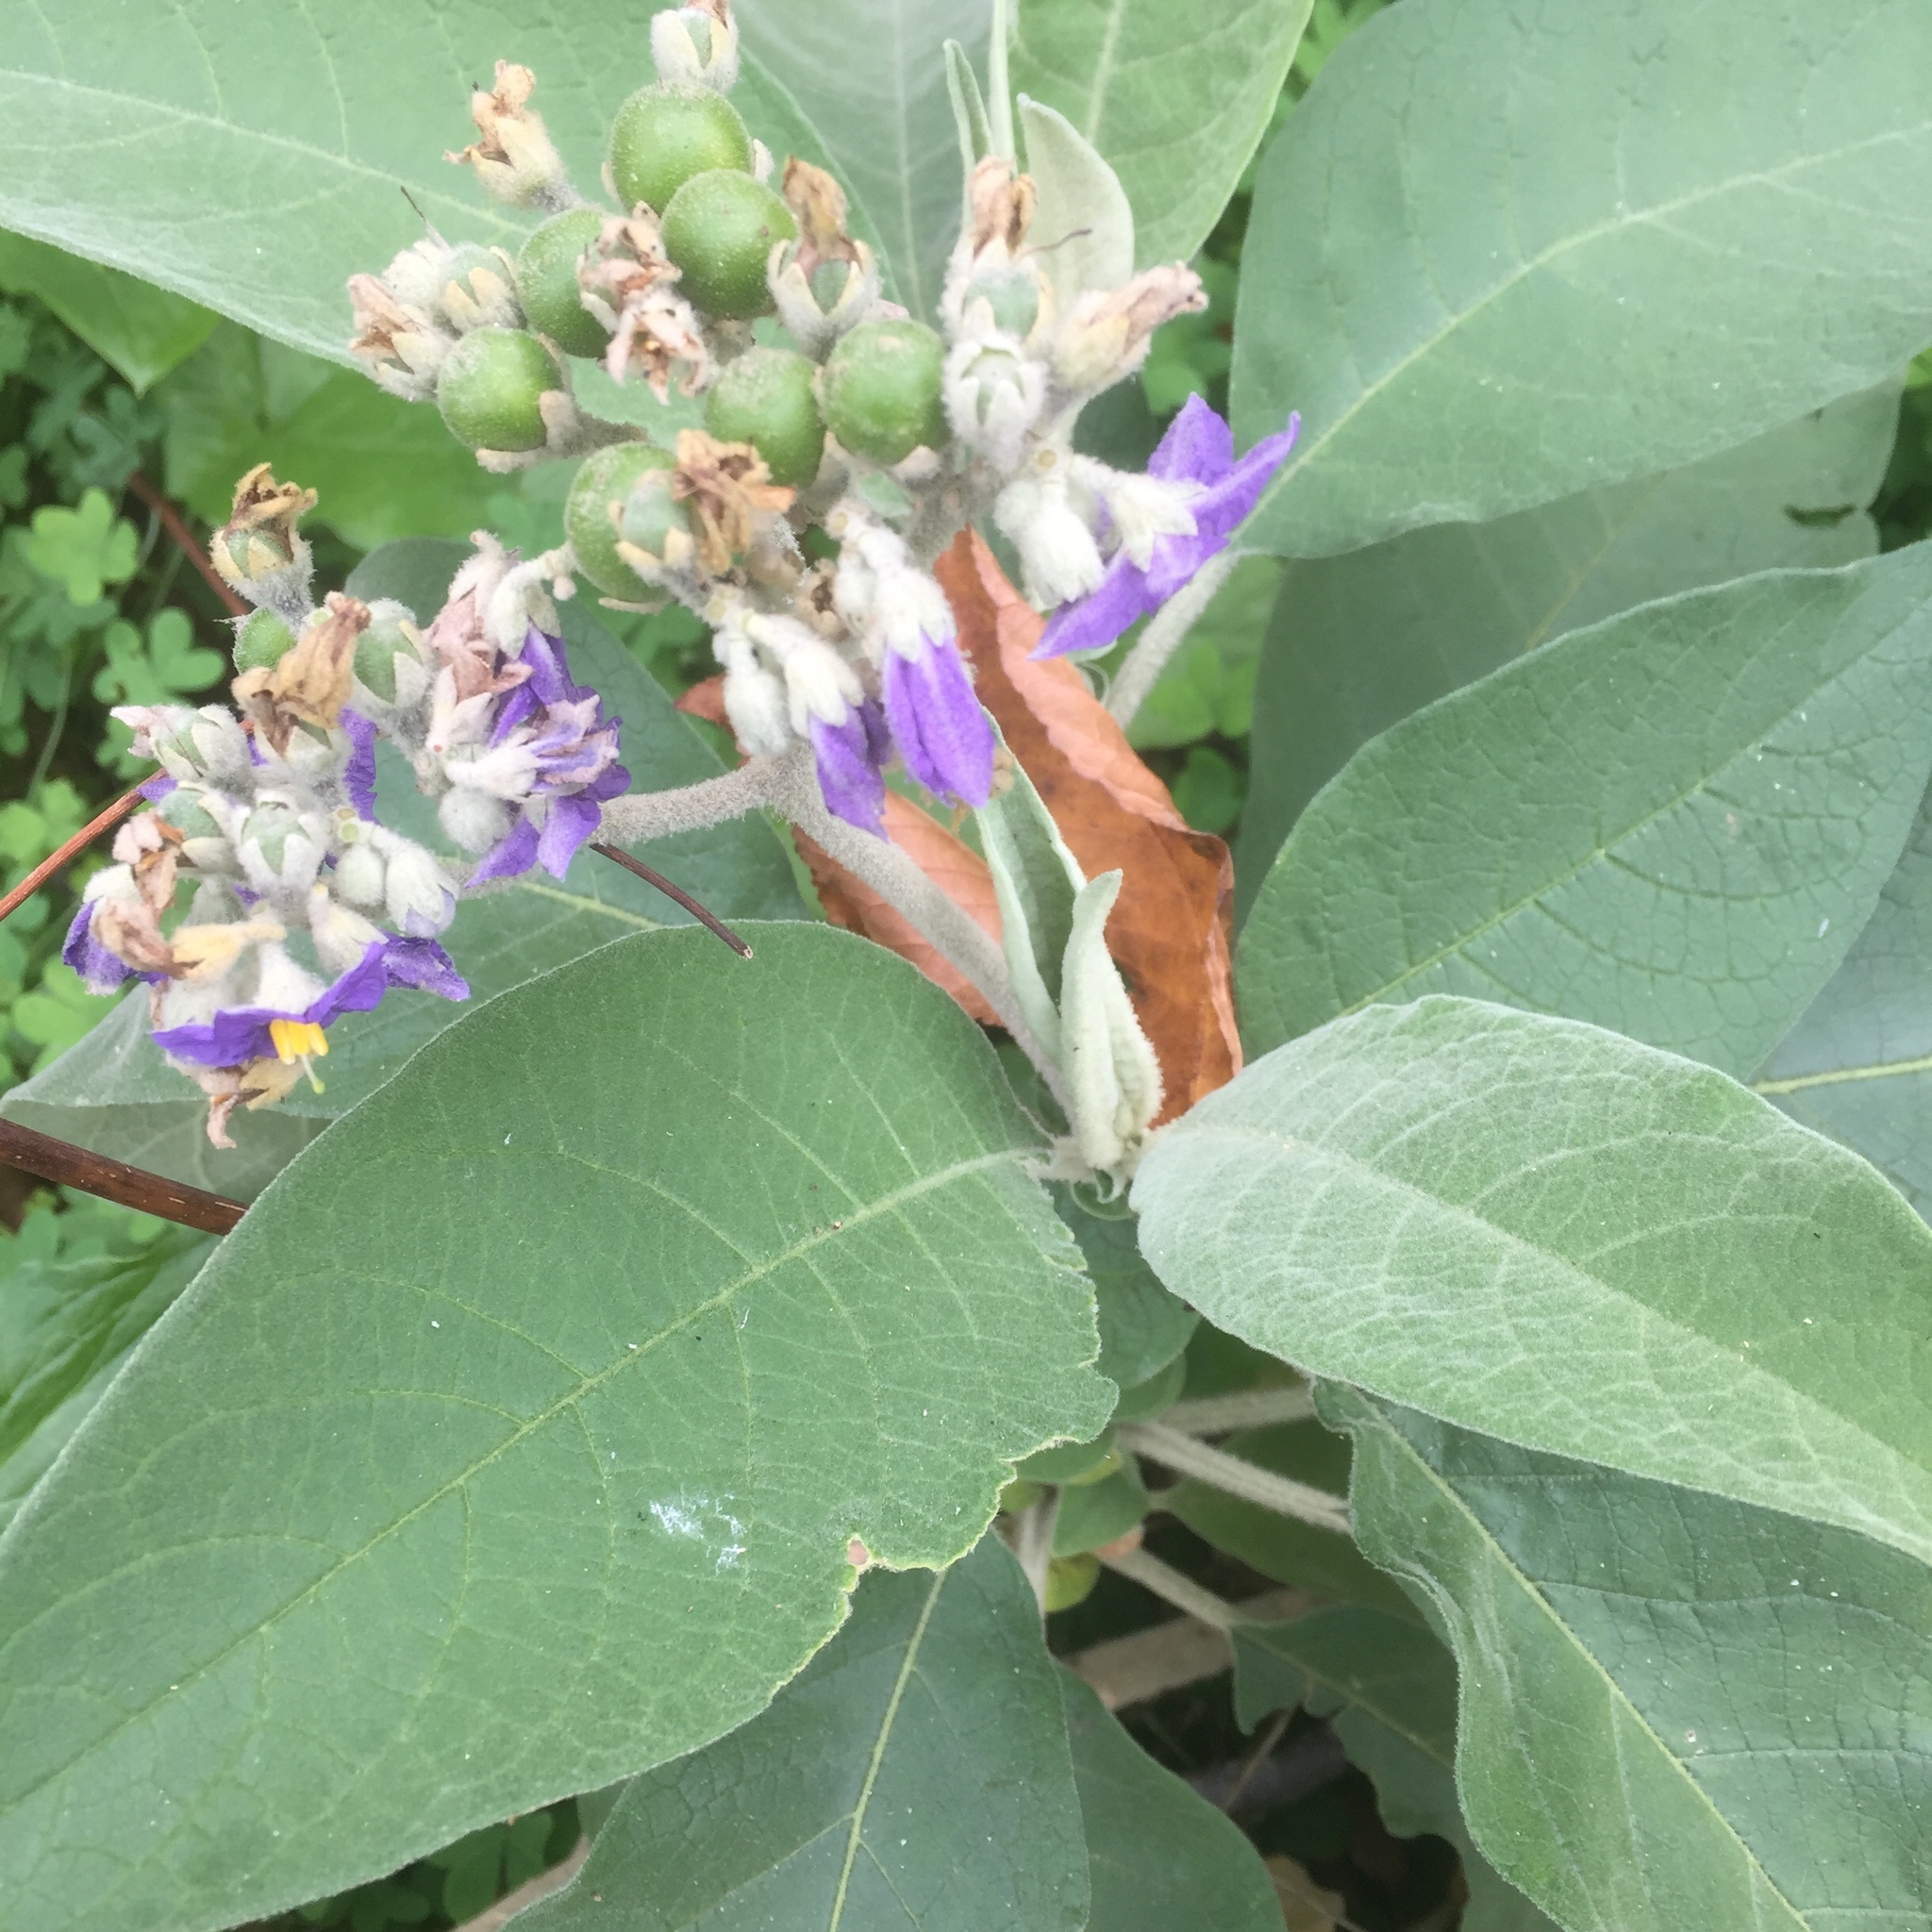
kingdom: Plantae
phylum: Tracheophyta
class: Magnoliopsida
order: Solanales
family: Solanaceae
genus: Solanum
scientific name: Solanum mauritianum
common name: Earleaf nightshade
